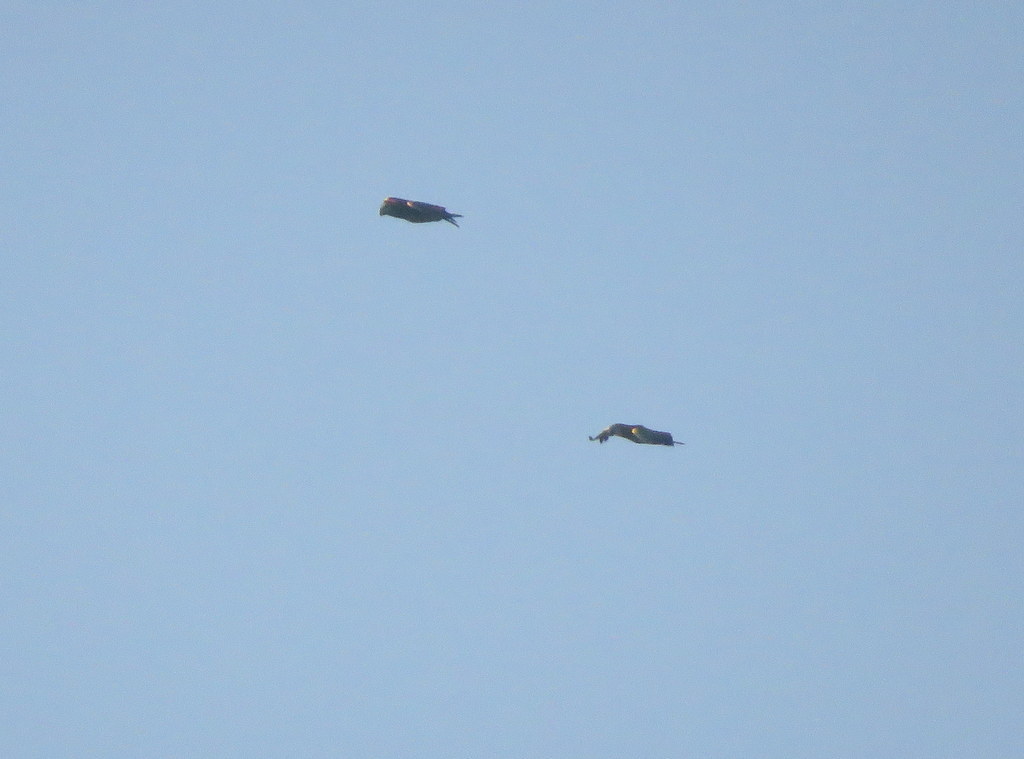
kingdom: Animalia
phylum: Chordata
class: Aves
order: Psittaciformes
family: Psittacidae
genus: Amazona
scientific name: Amazona aestiva
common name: Turquoise-fronted amazon
